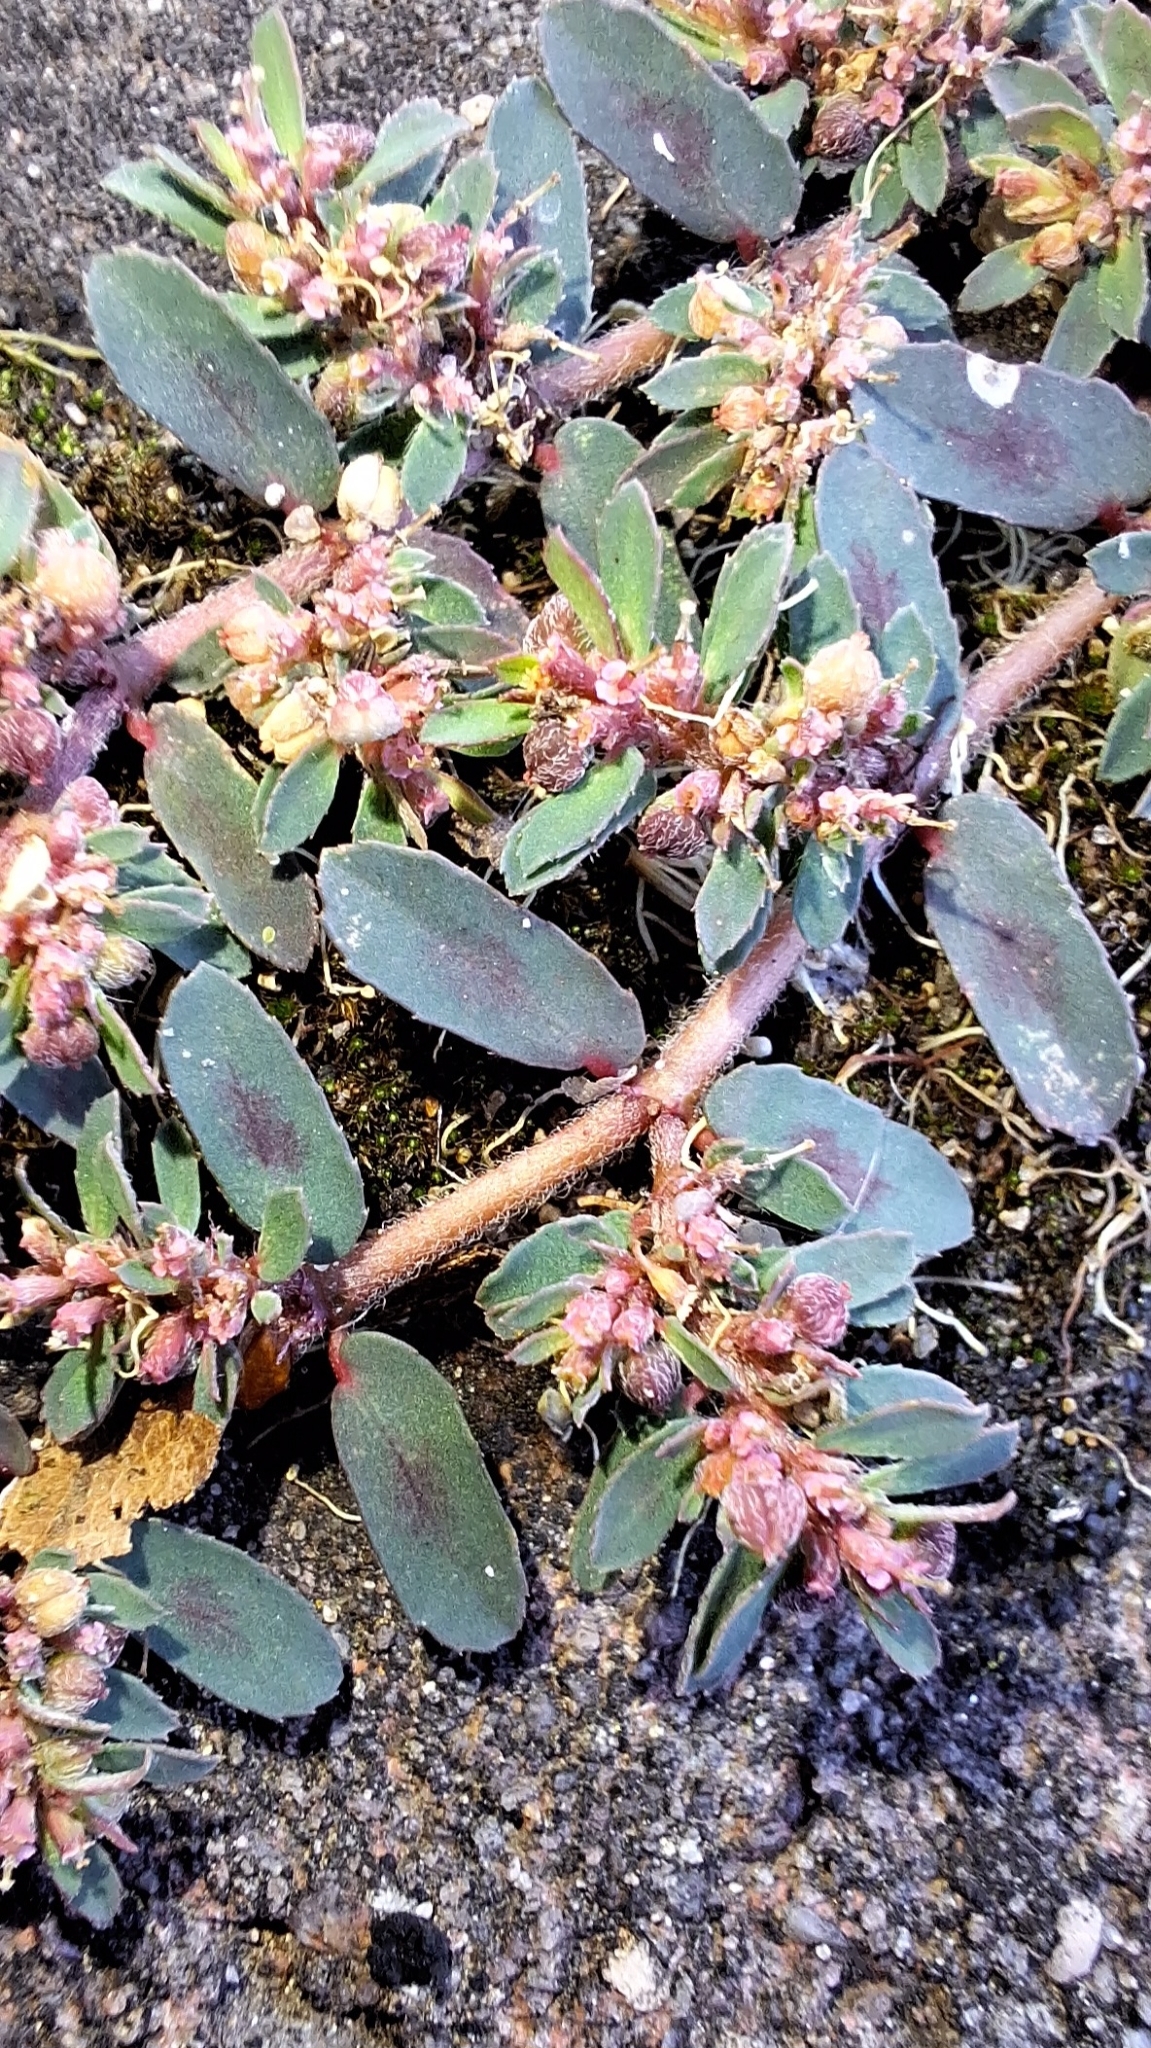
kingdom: Plantae
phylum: Tracheophyta
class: Magnoliopsida
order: Malpighiales
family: Euphorbiaceae
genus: Euphorbia
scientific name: Euphorbia maculata
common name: Spotted spurge
